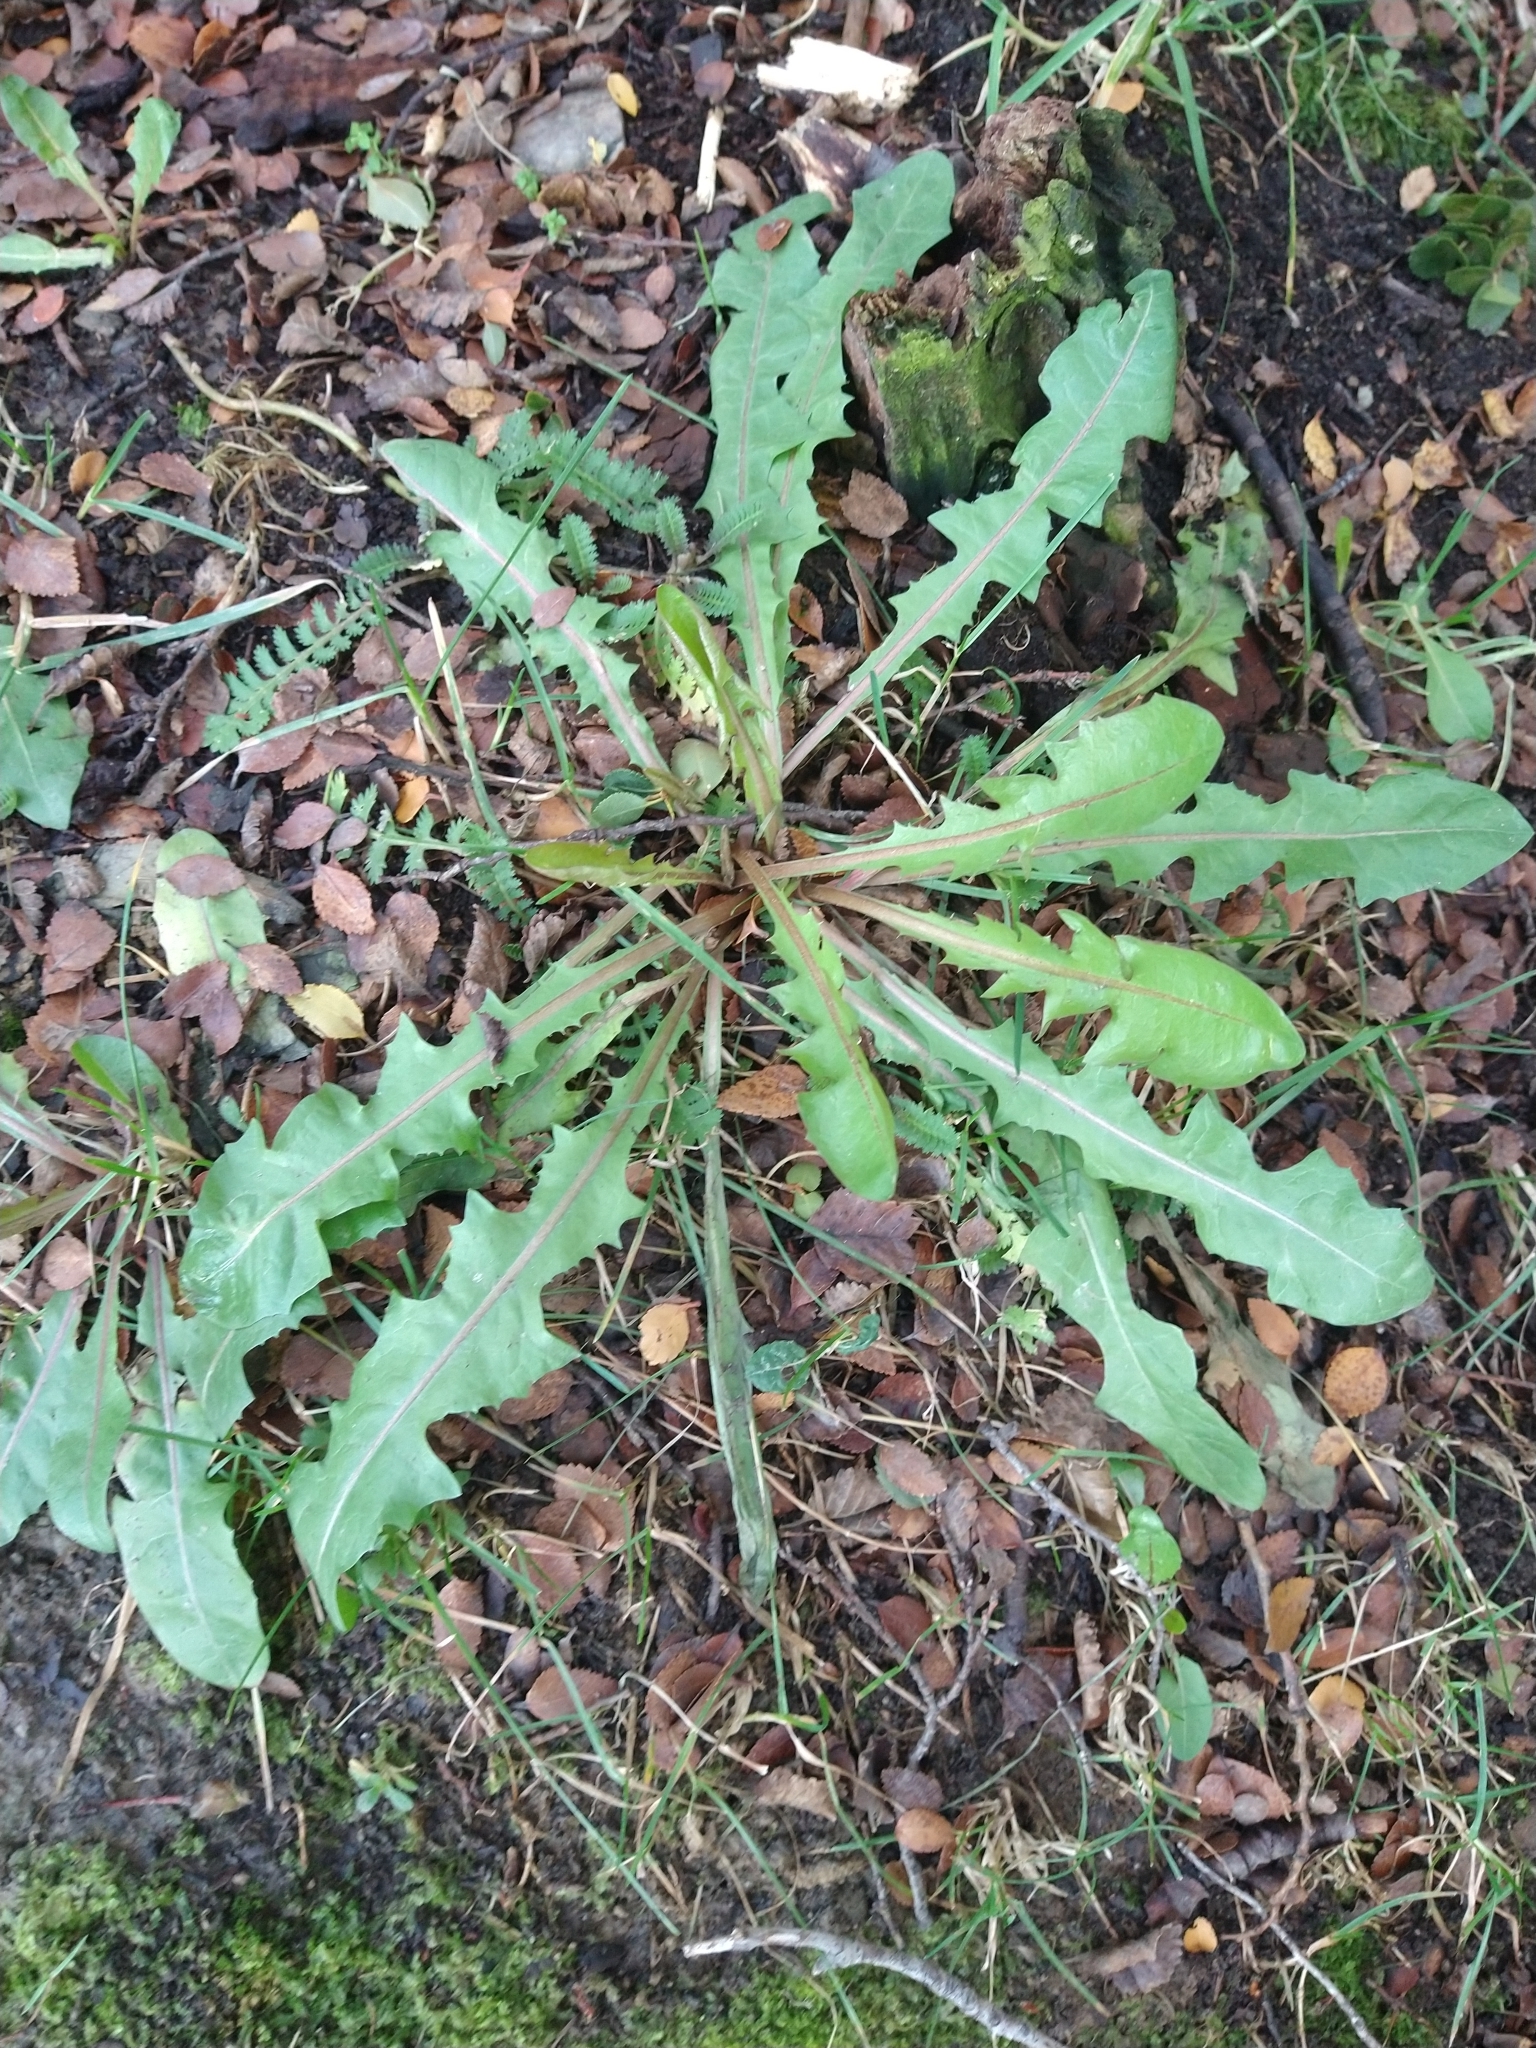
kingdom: Plantae
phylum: Tracheophyta
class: Magnoliopsida
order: Asterales
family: Asteraceae
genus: Taraxacum
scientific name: Taraxacum officinale
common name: Common dandelion
